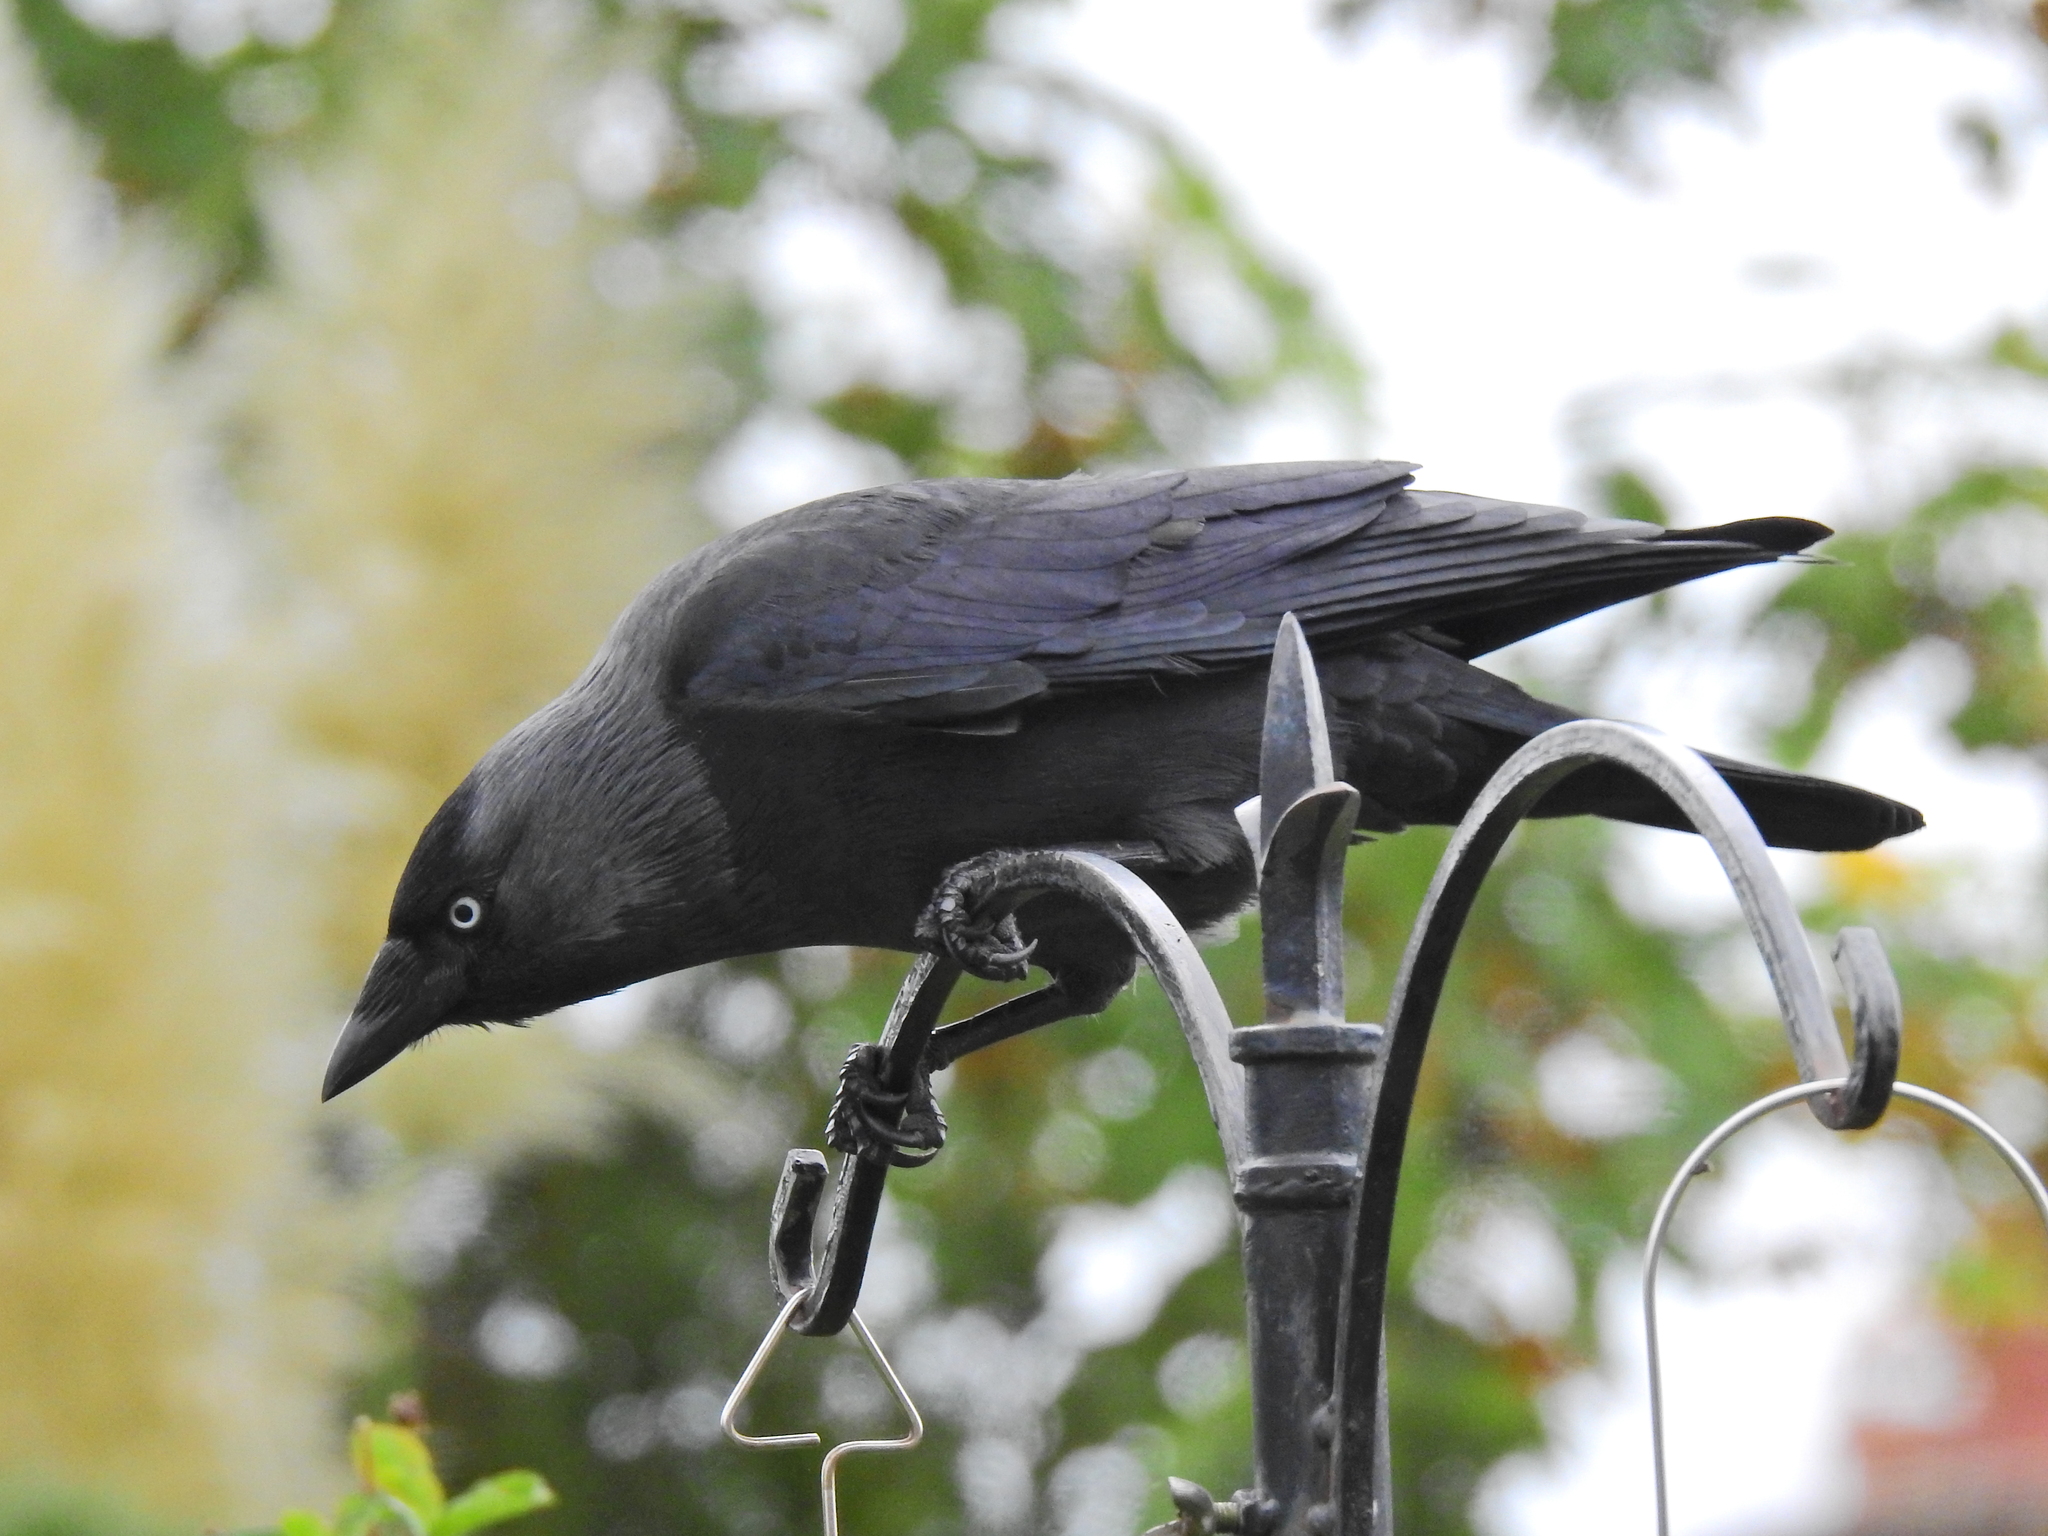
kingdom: Animalia
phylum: Chordata
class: Aves
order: Passeriformes
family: Corvidae
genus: Coloeus
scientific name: Coloeus monedula
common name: Western jackdaw
